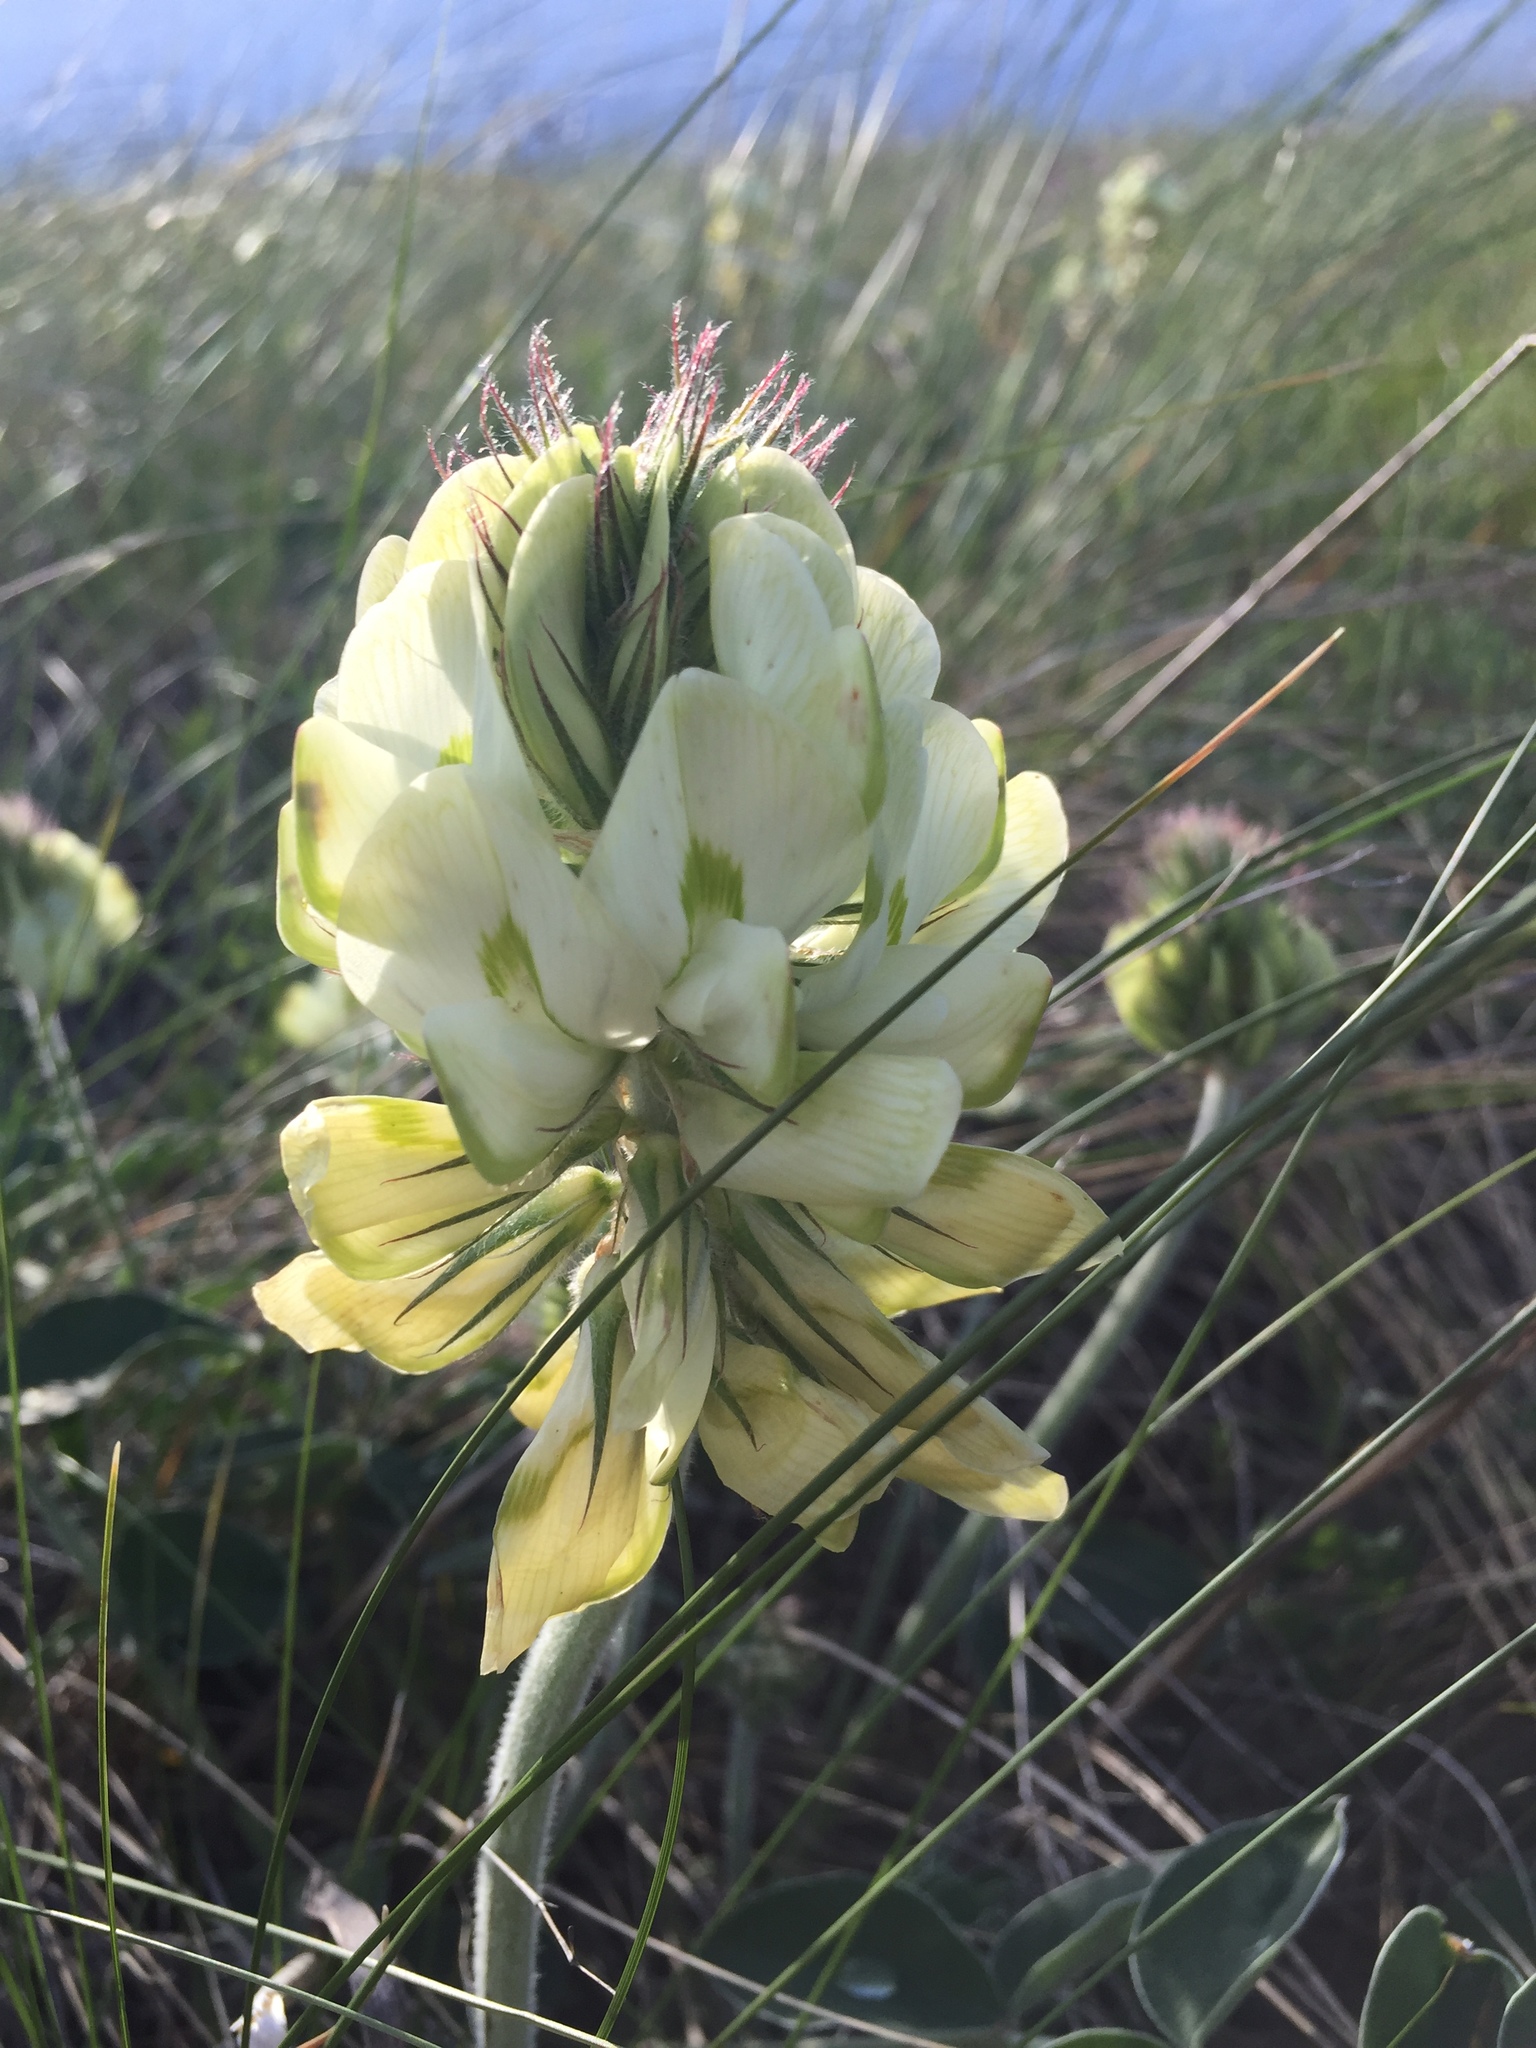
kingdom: Plantae
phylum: Tracheophyta
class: Magnoliopsida
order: Fabales
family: Fabaceae
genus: Hedysarum
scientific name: Hedysarum grandiflorum
